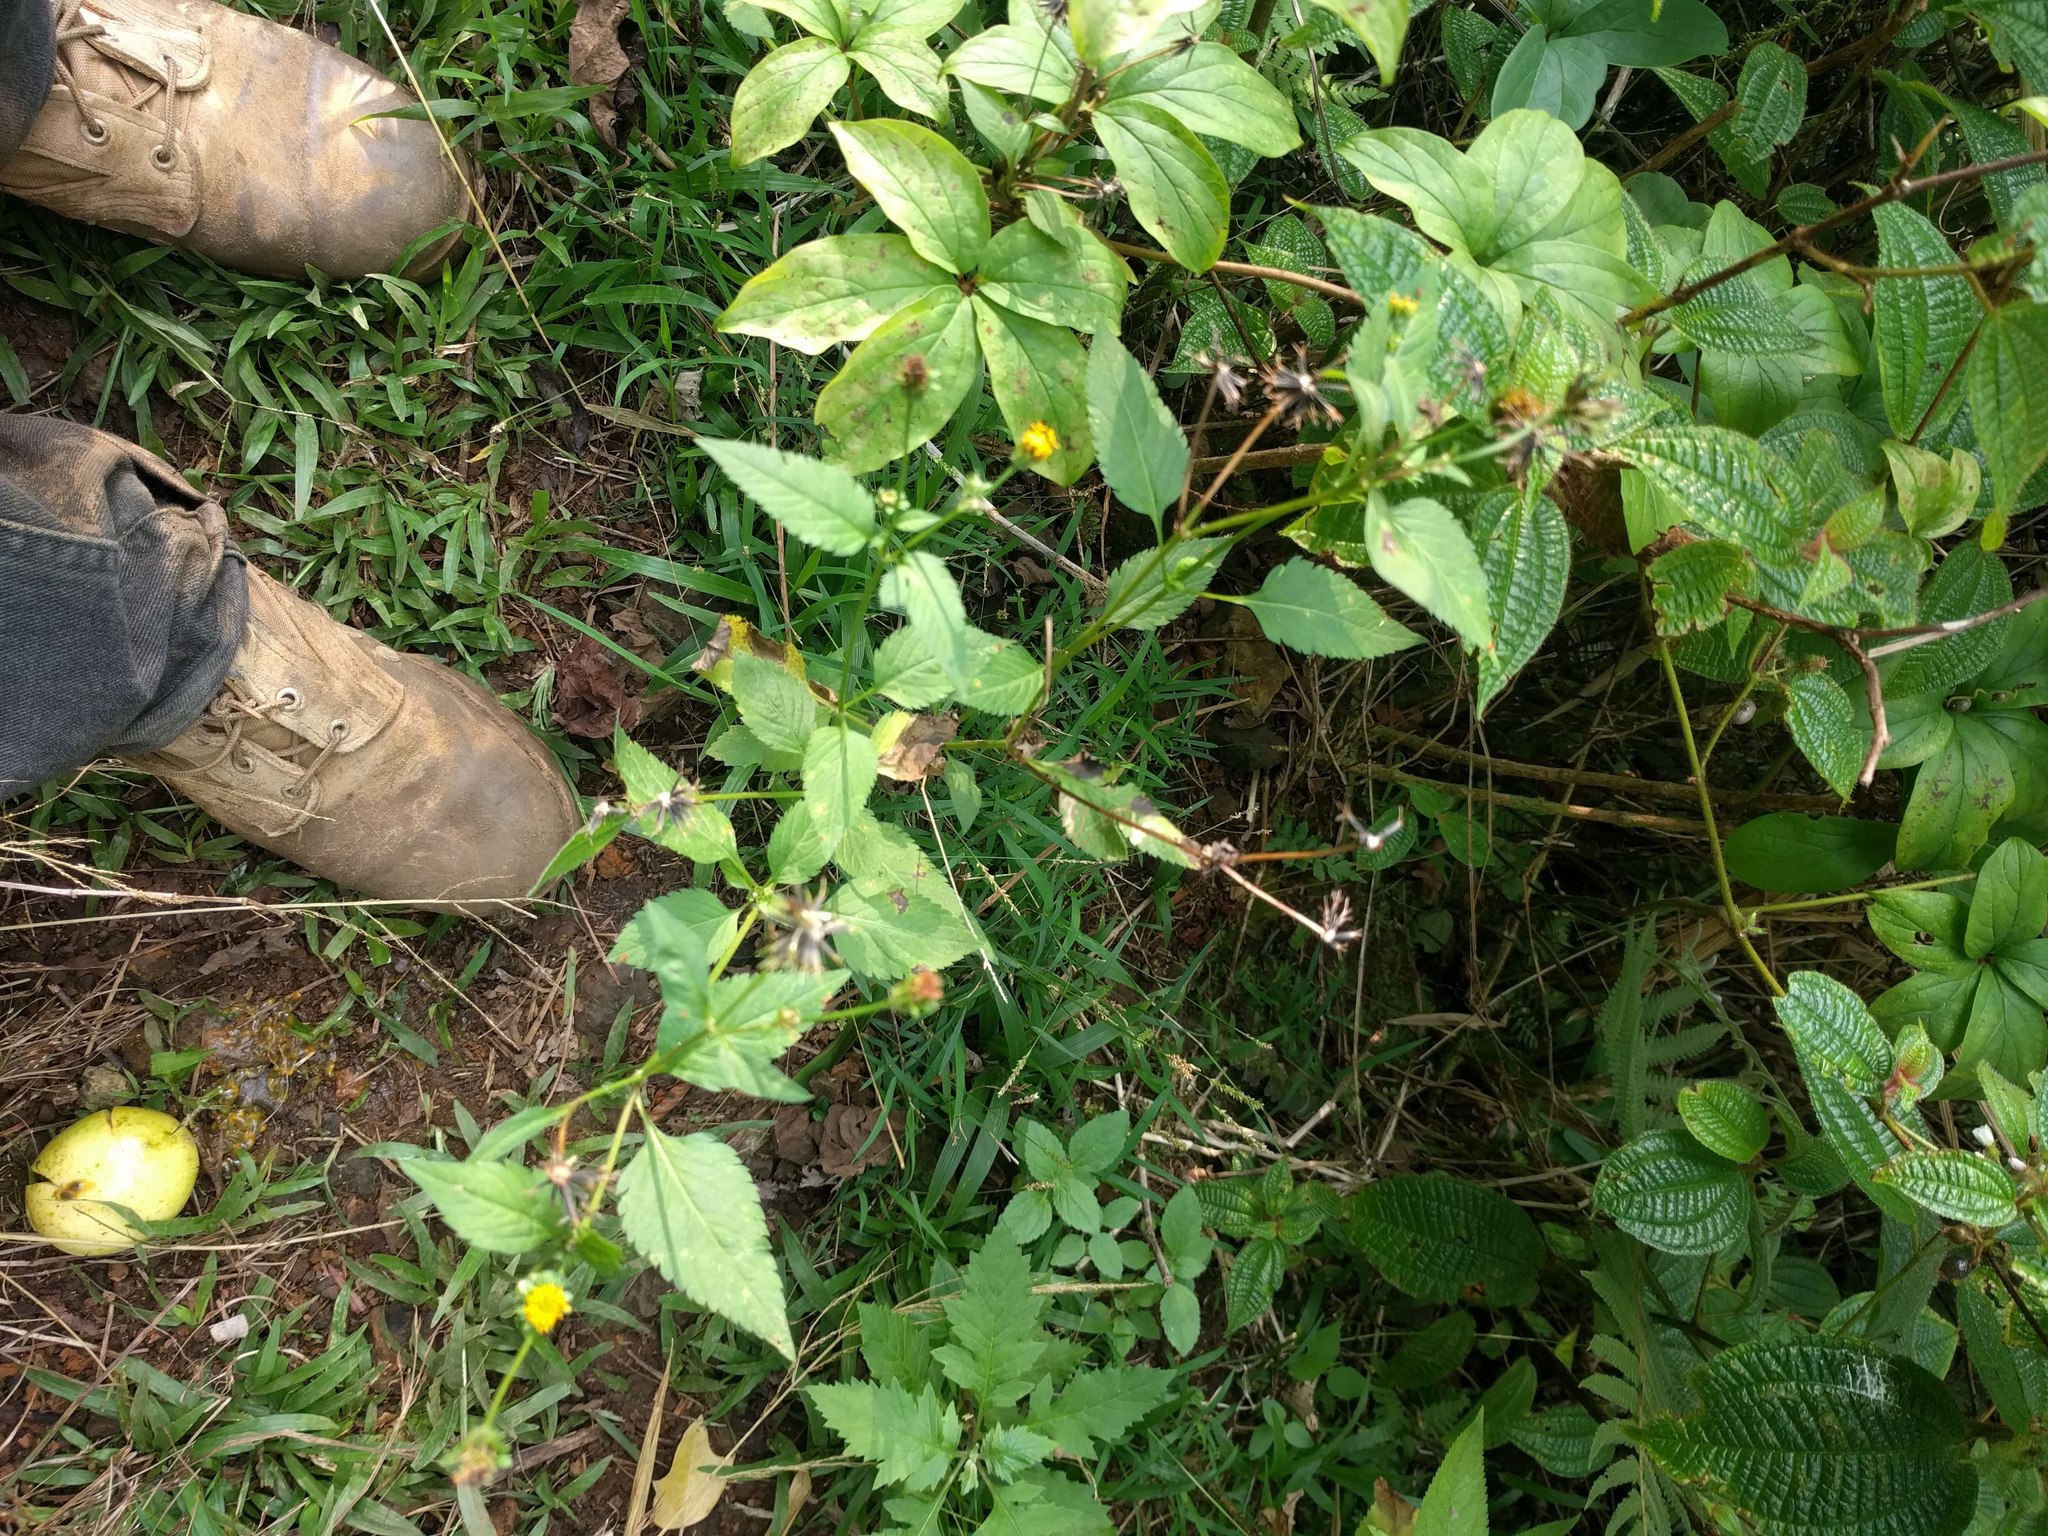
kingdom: Plantae
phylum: Tracheophyta
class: Magnoliopsida
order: Asterales
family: Asteraceae
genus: Bidens
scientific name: Bidens pilosa
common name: Black-jack
